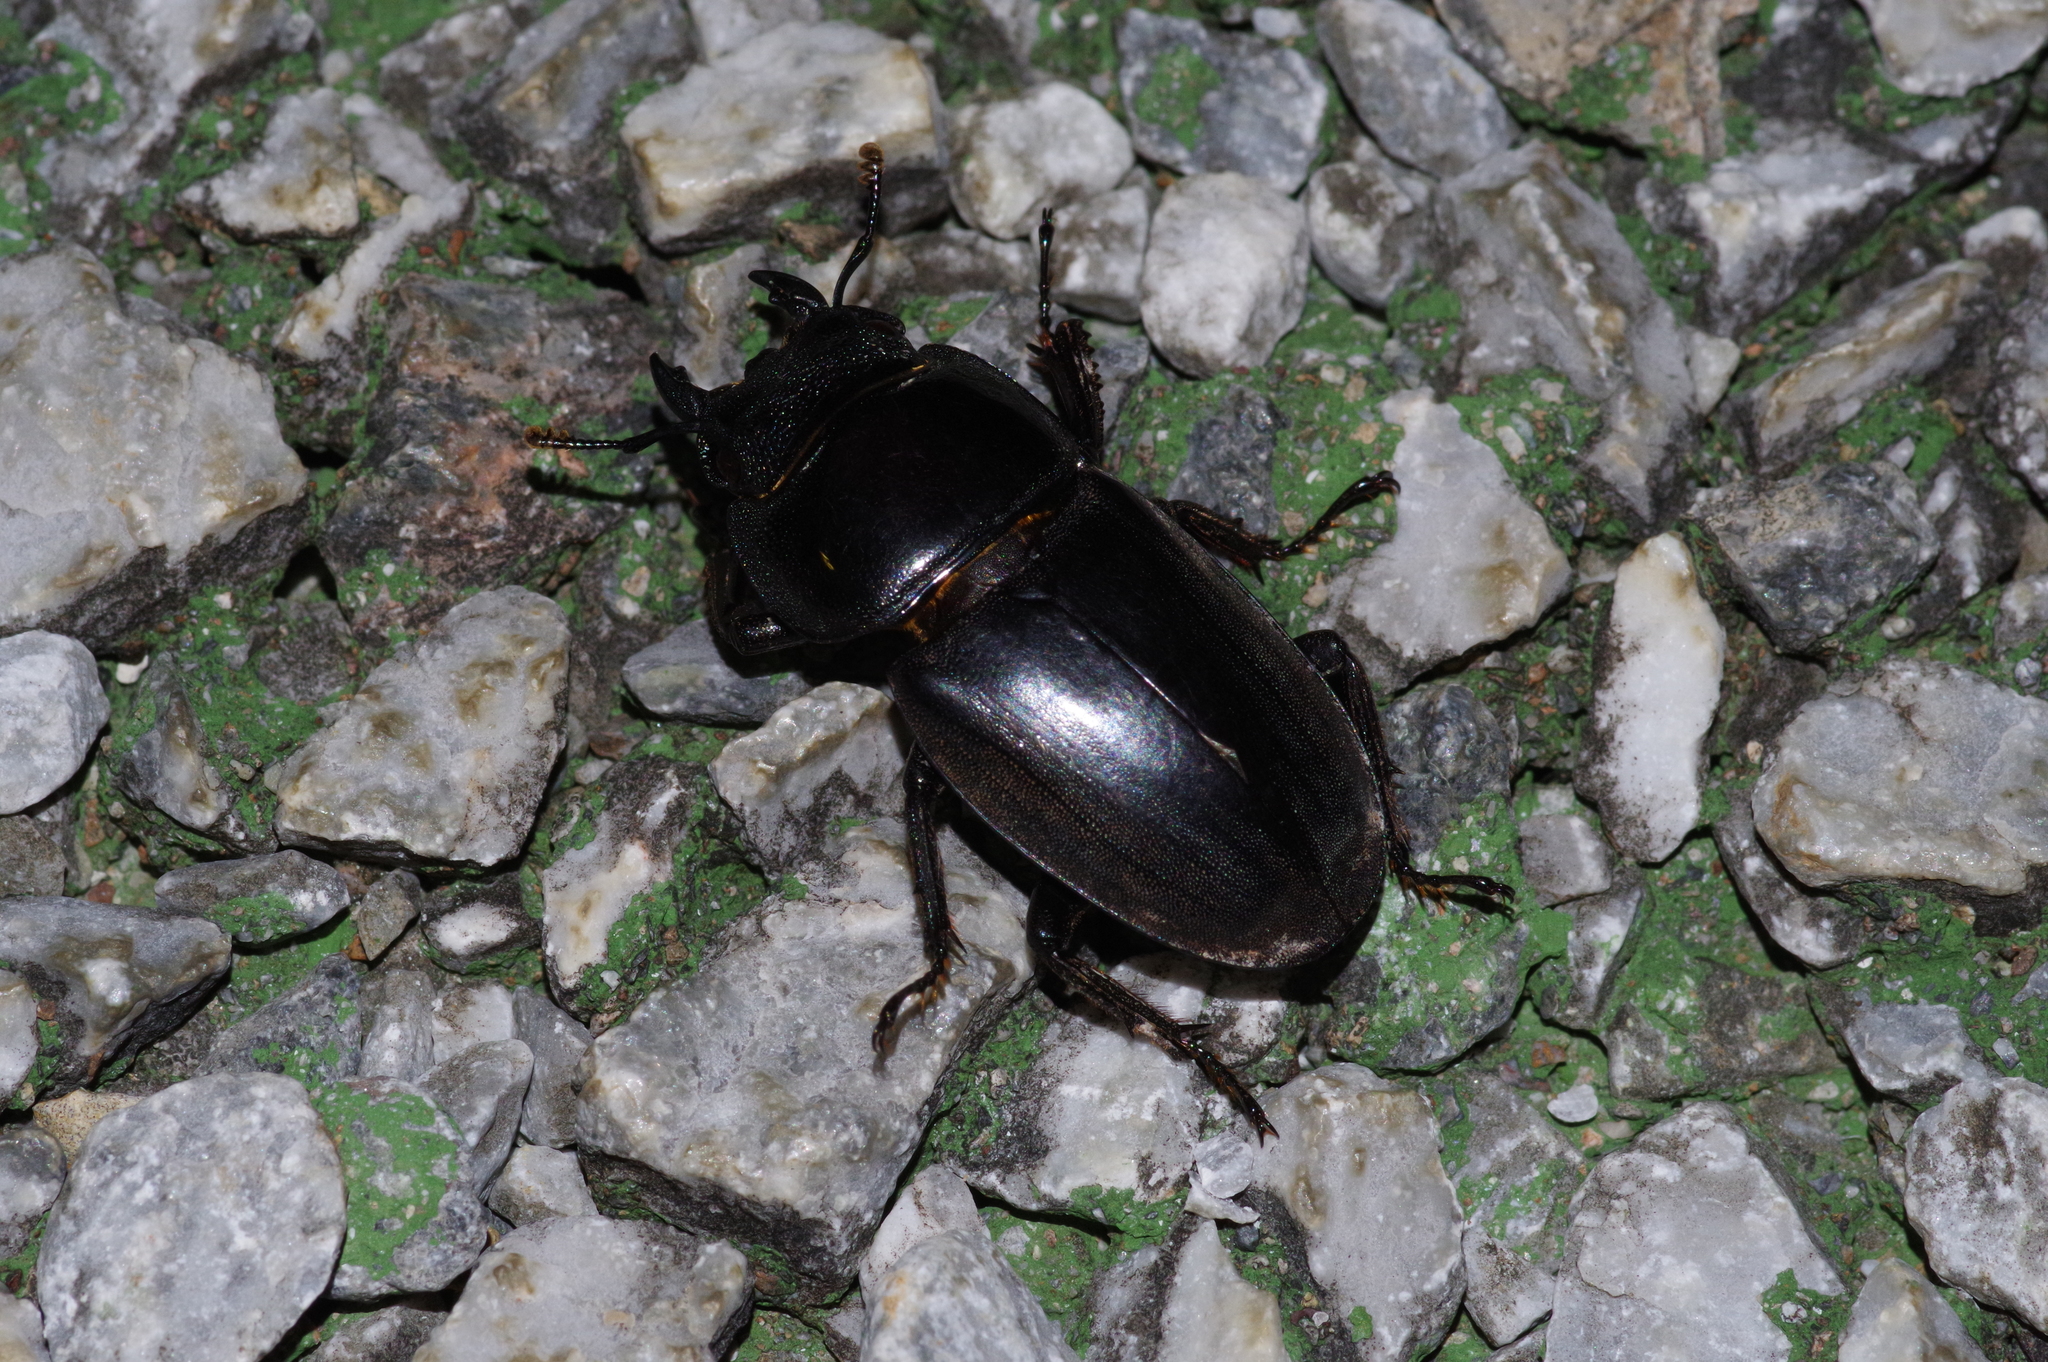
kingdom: Animalia
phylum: Arthropoda
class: Insecta
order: Coleoptera
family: Lucanidae
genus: Serrognathus
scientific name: Serrognathus titanus
